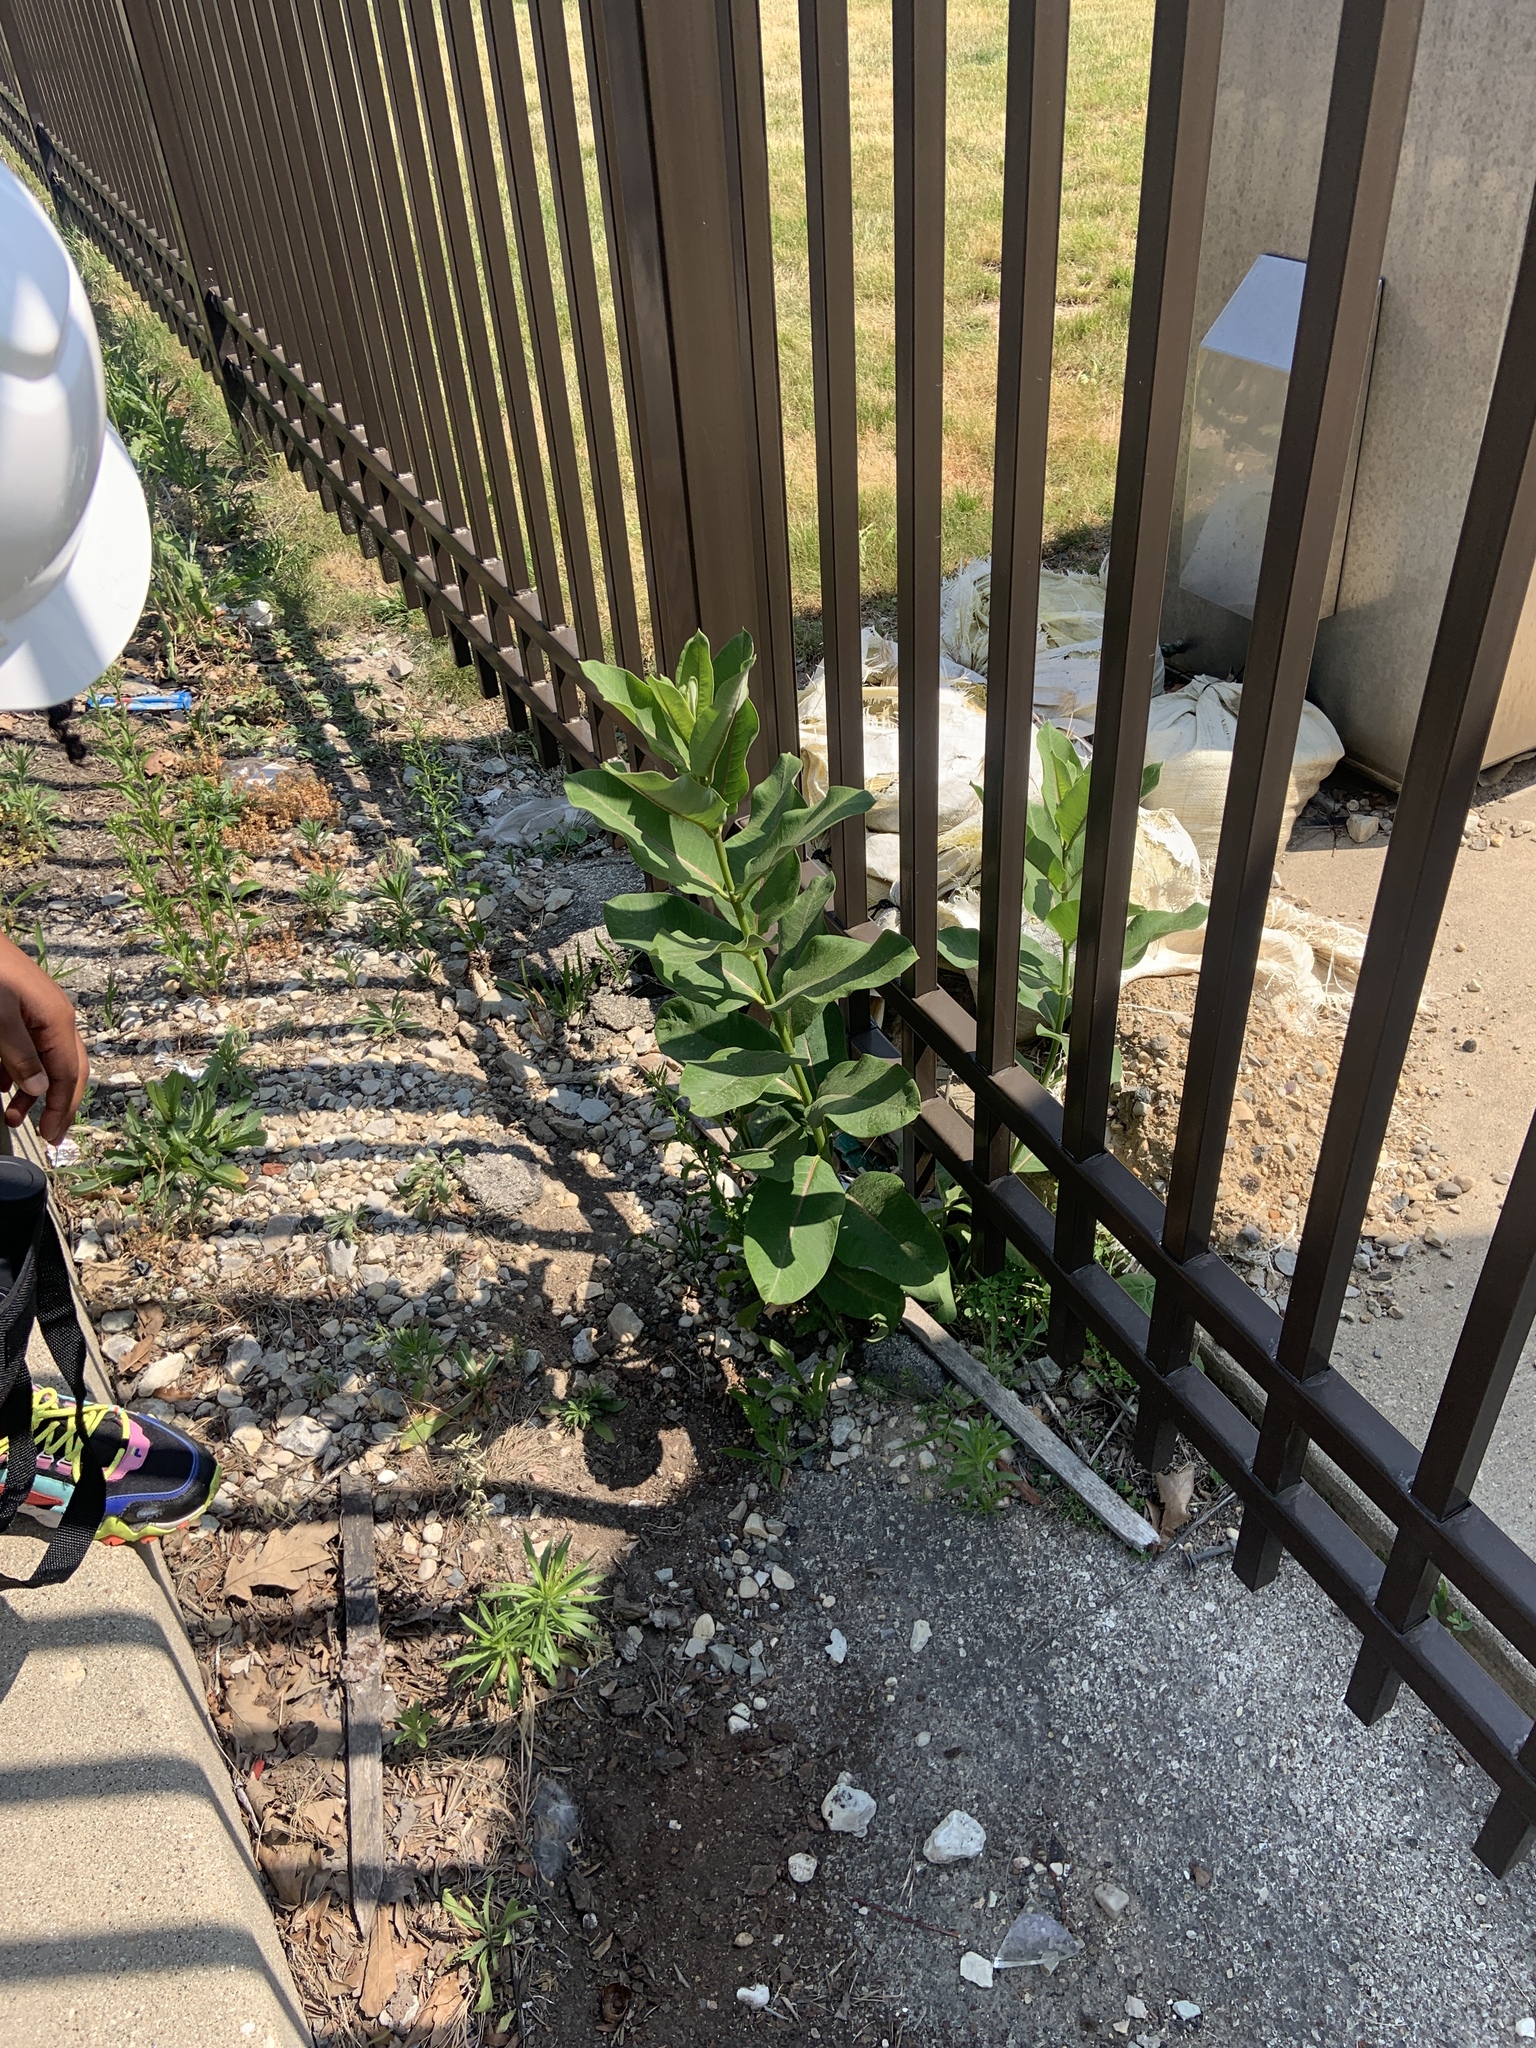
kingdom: Plantae
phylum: Tracheophyta
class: Magnoliopsida
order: Gentianales
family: Apocynaceae
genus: Asclepias
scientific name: Asclepias syriaca
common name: Common milkweed
